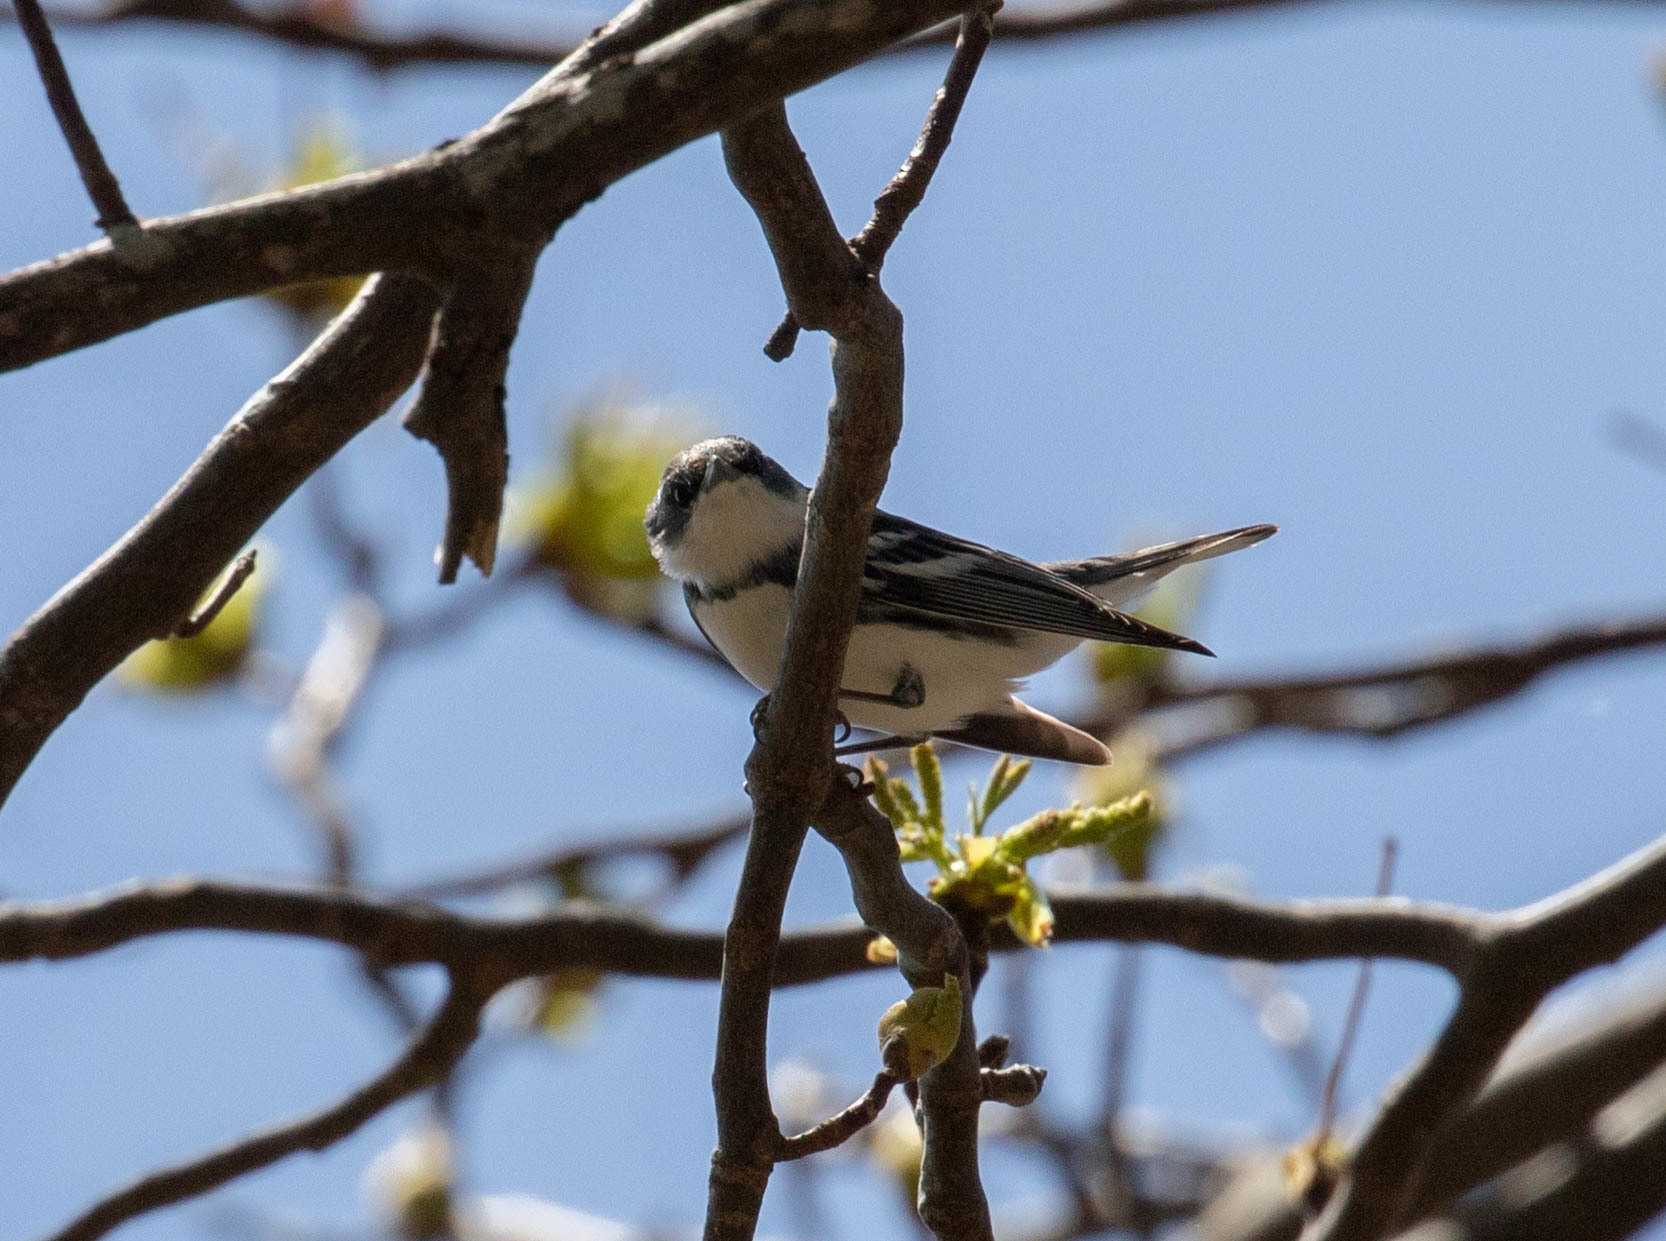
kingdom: Animalia
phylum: Chordata
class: Aves
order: Passeriformes
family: Parulidae
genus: Setophaga
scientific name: Setophaga cerulea
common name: Cerulean warbler
